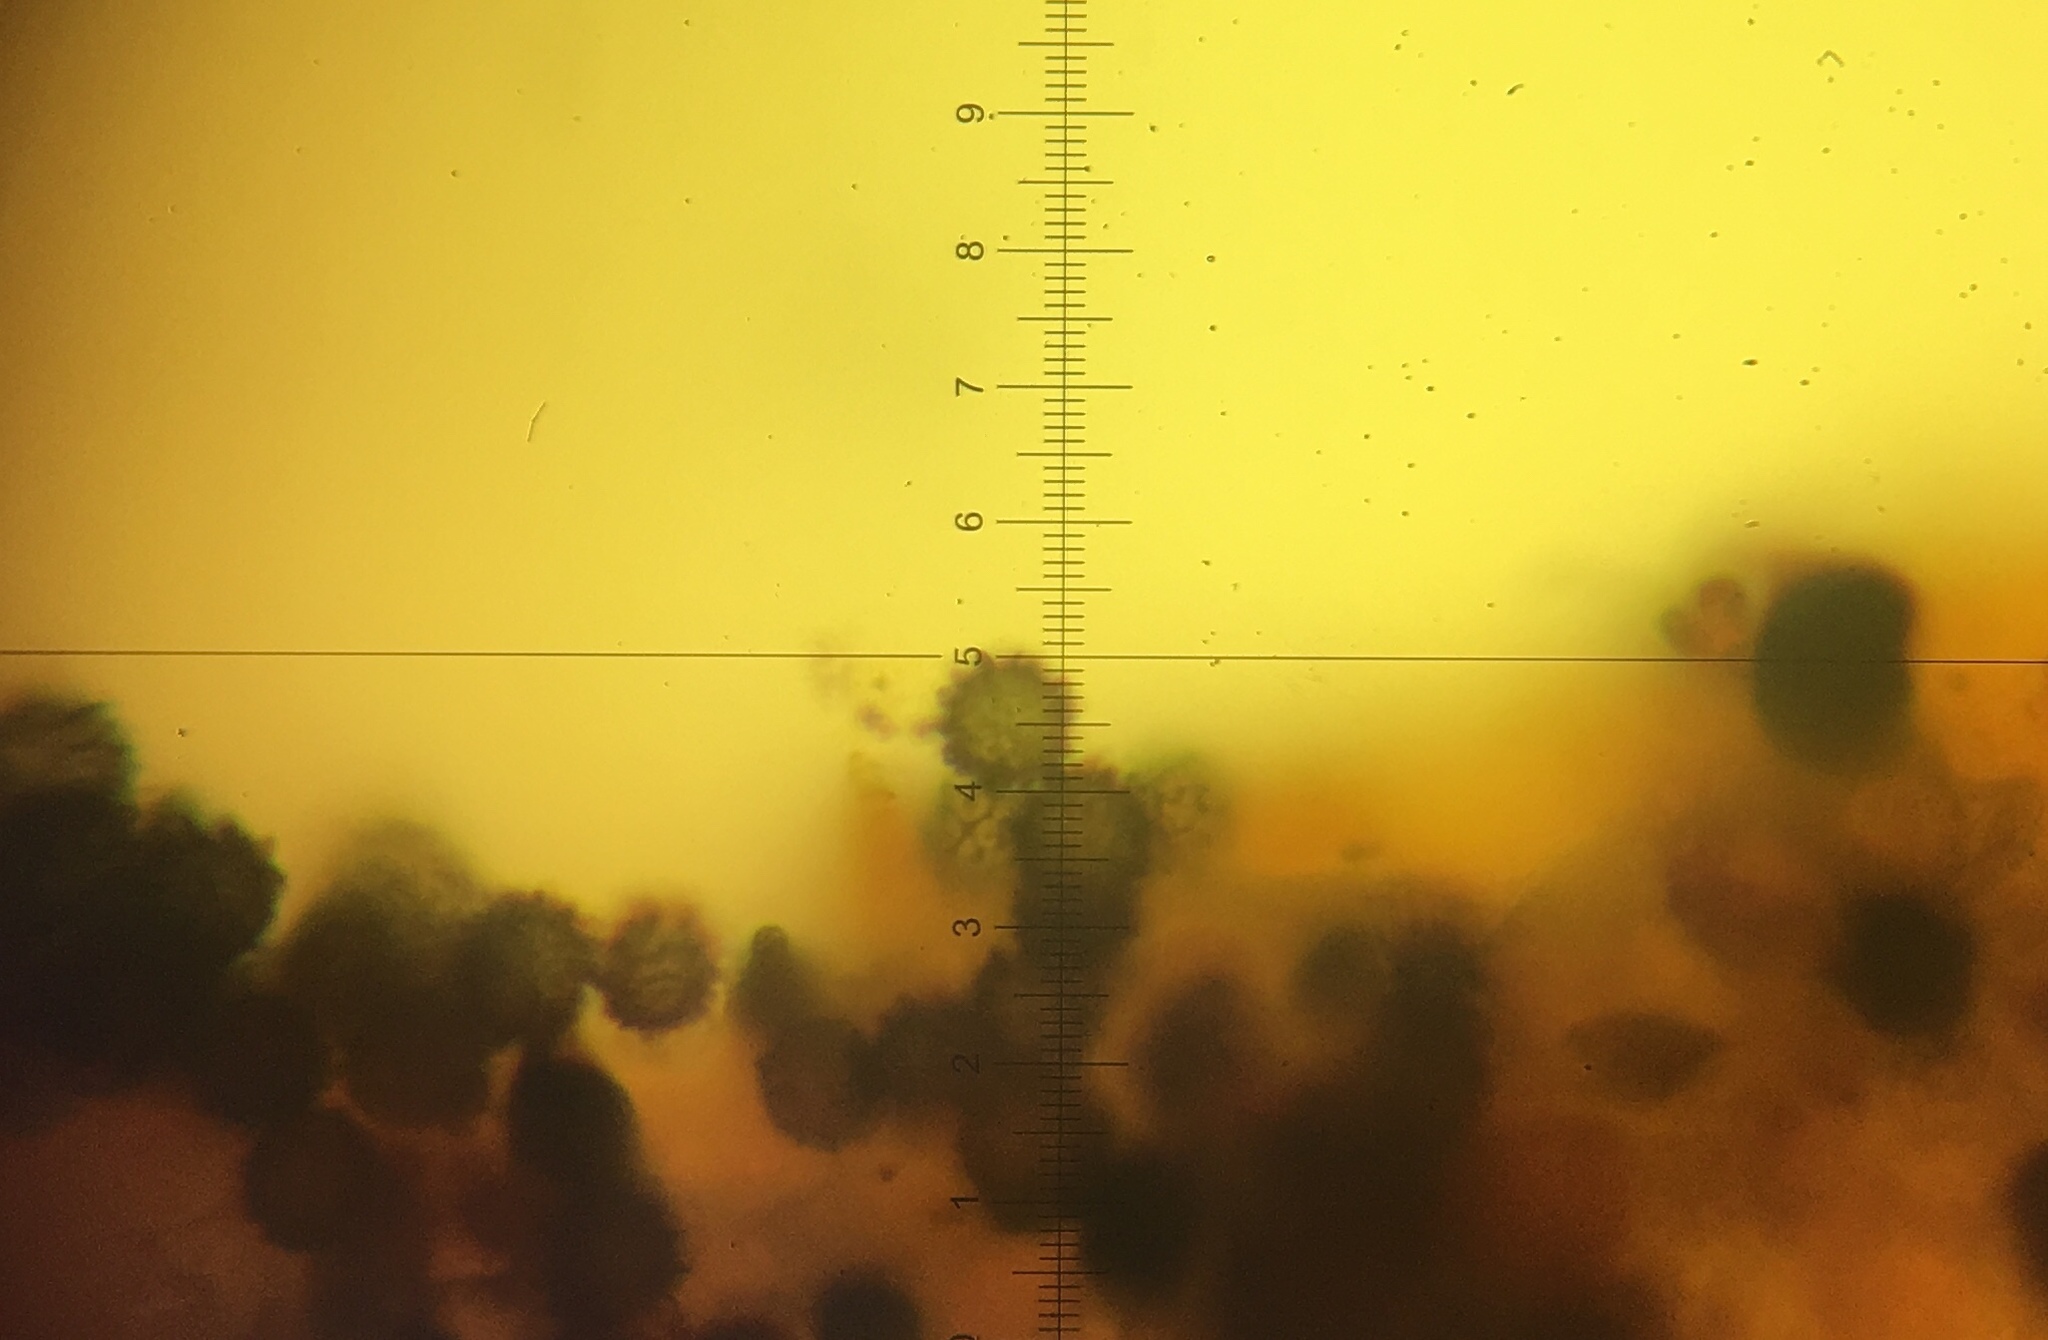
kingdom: Fungi
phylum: Basidiomycota
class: Agaricomycetes
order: Russulales
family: Russulaceae
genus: Russula
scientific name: Russula grata
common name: Bitter almond brittlegill
